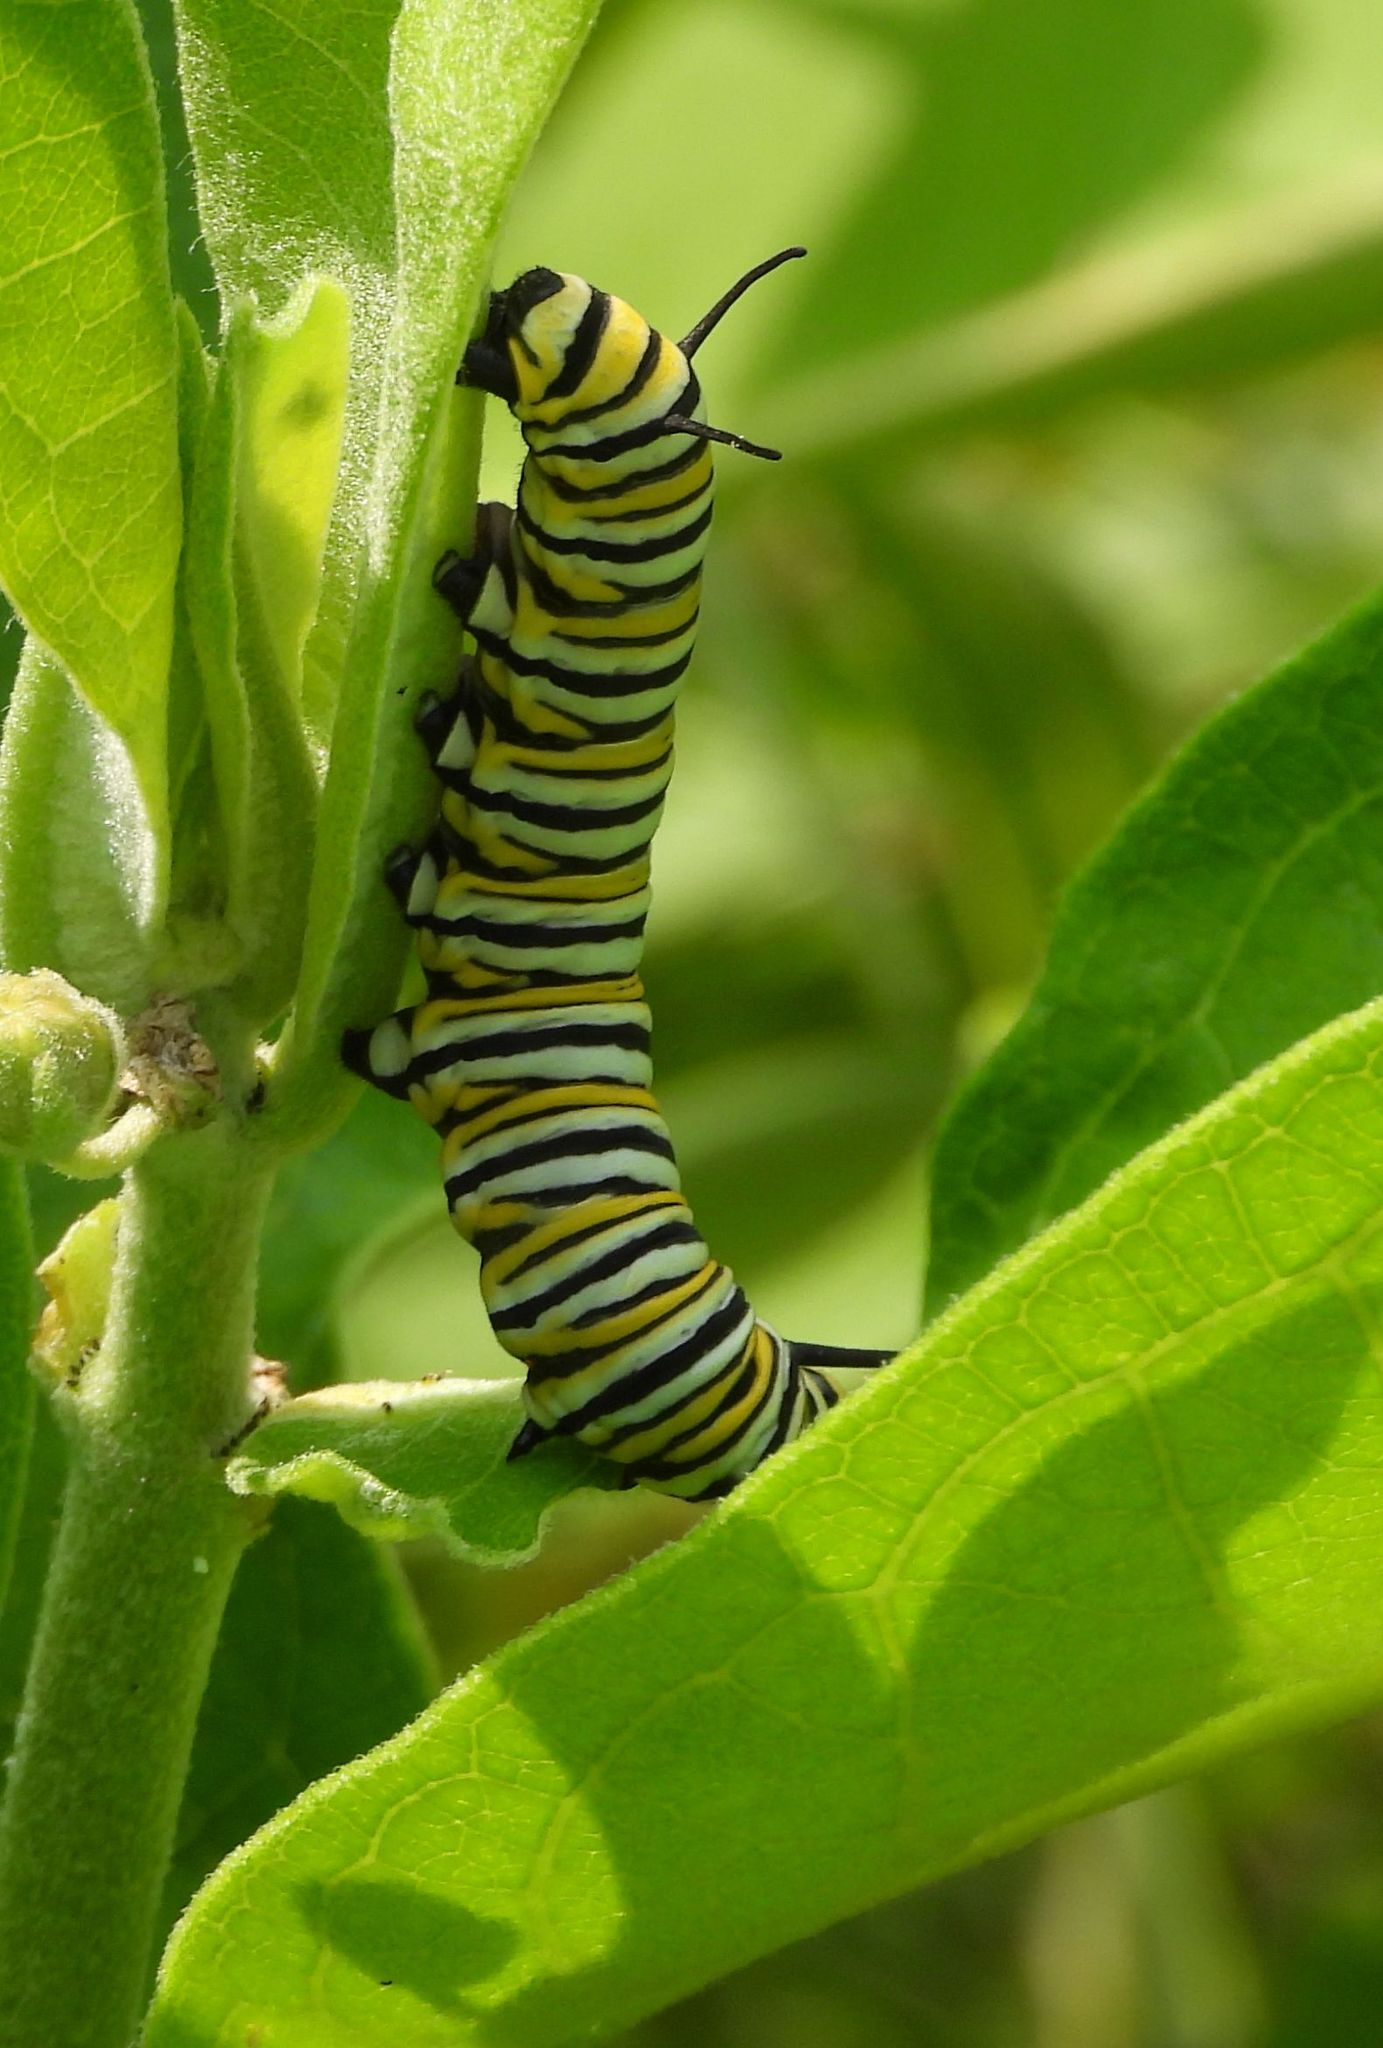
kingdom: Animalia
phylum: Arthropoda
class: Insecta
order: Lepidoptera
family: Nymphalidae
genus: Danaus
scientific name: Danaus plexippus
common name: Monarch
